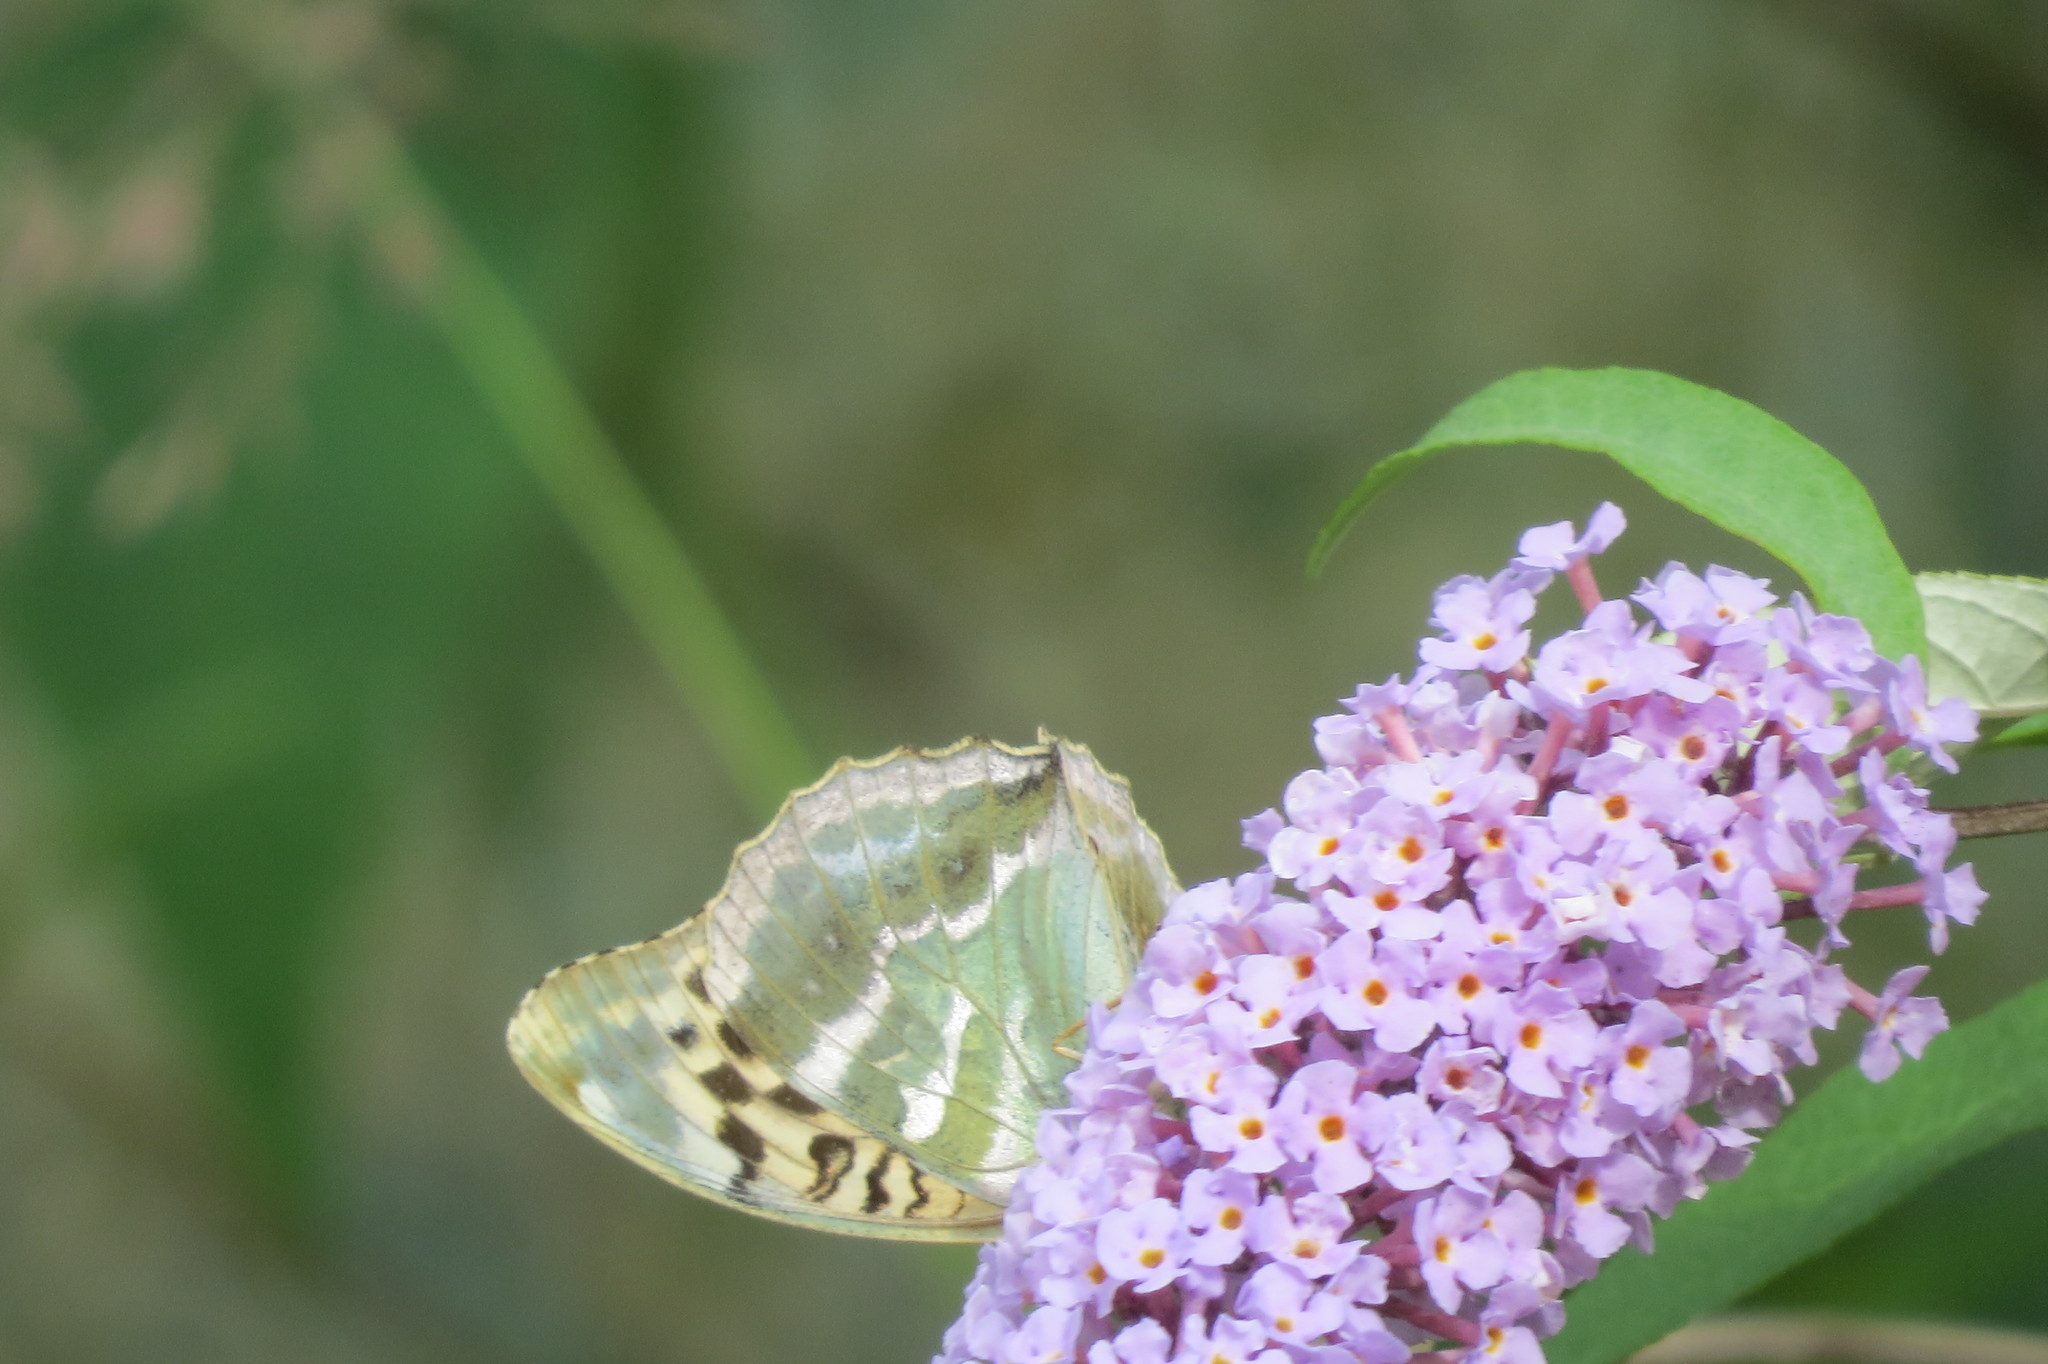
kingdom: Animalia
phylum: Arthropoda
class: Insecta
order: Lepidoptera
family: Nymphalidae
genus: Argynnis
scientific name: Argynnis paphia
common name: Silver-washed fritillary
